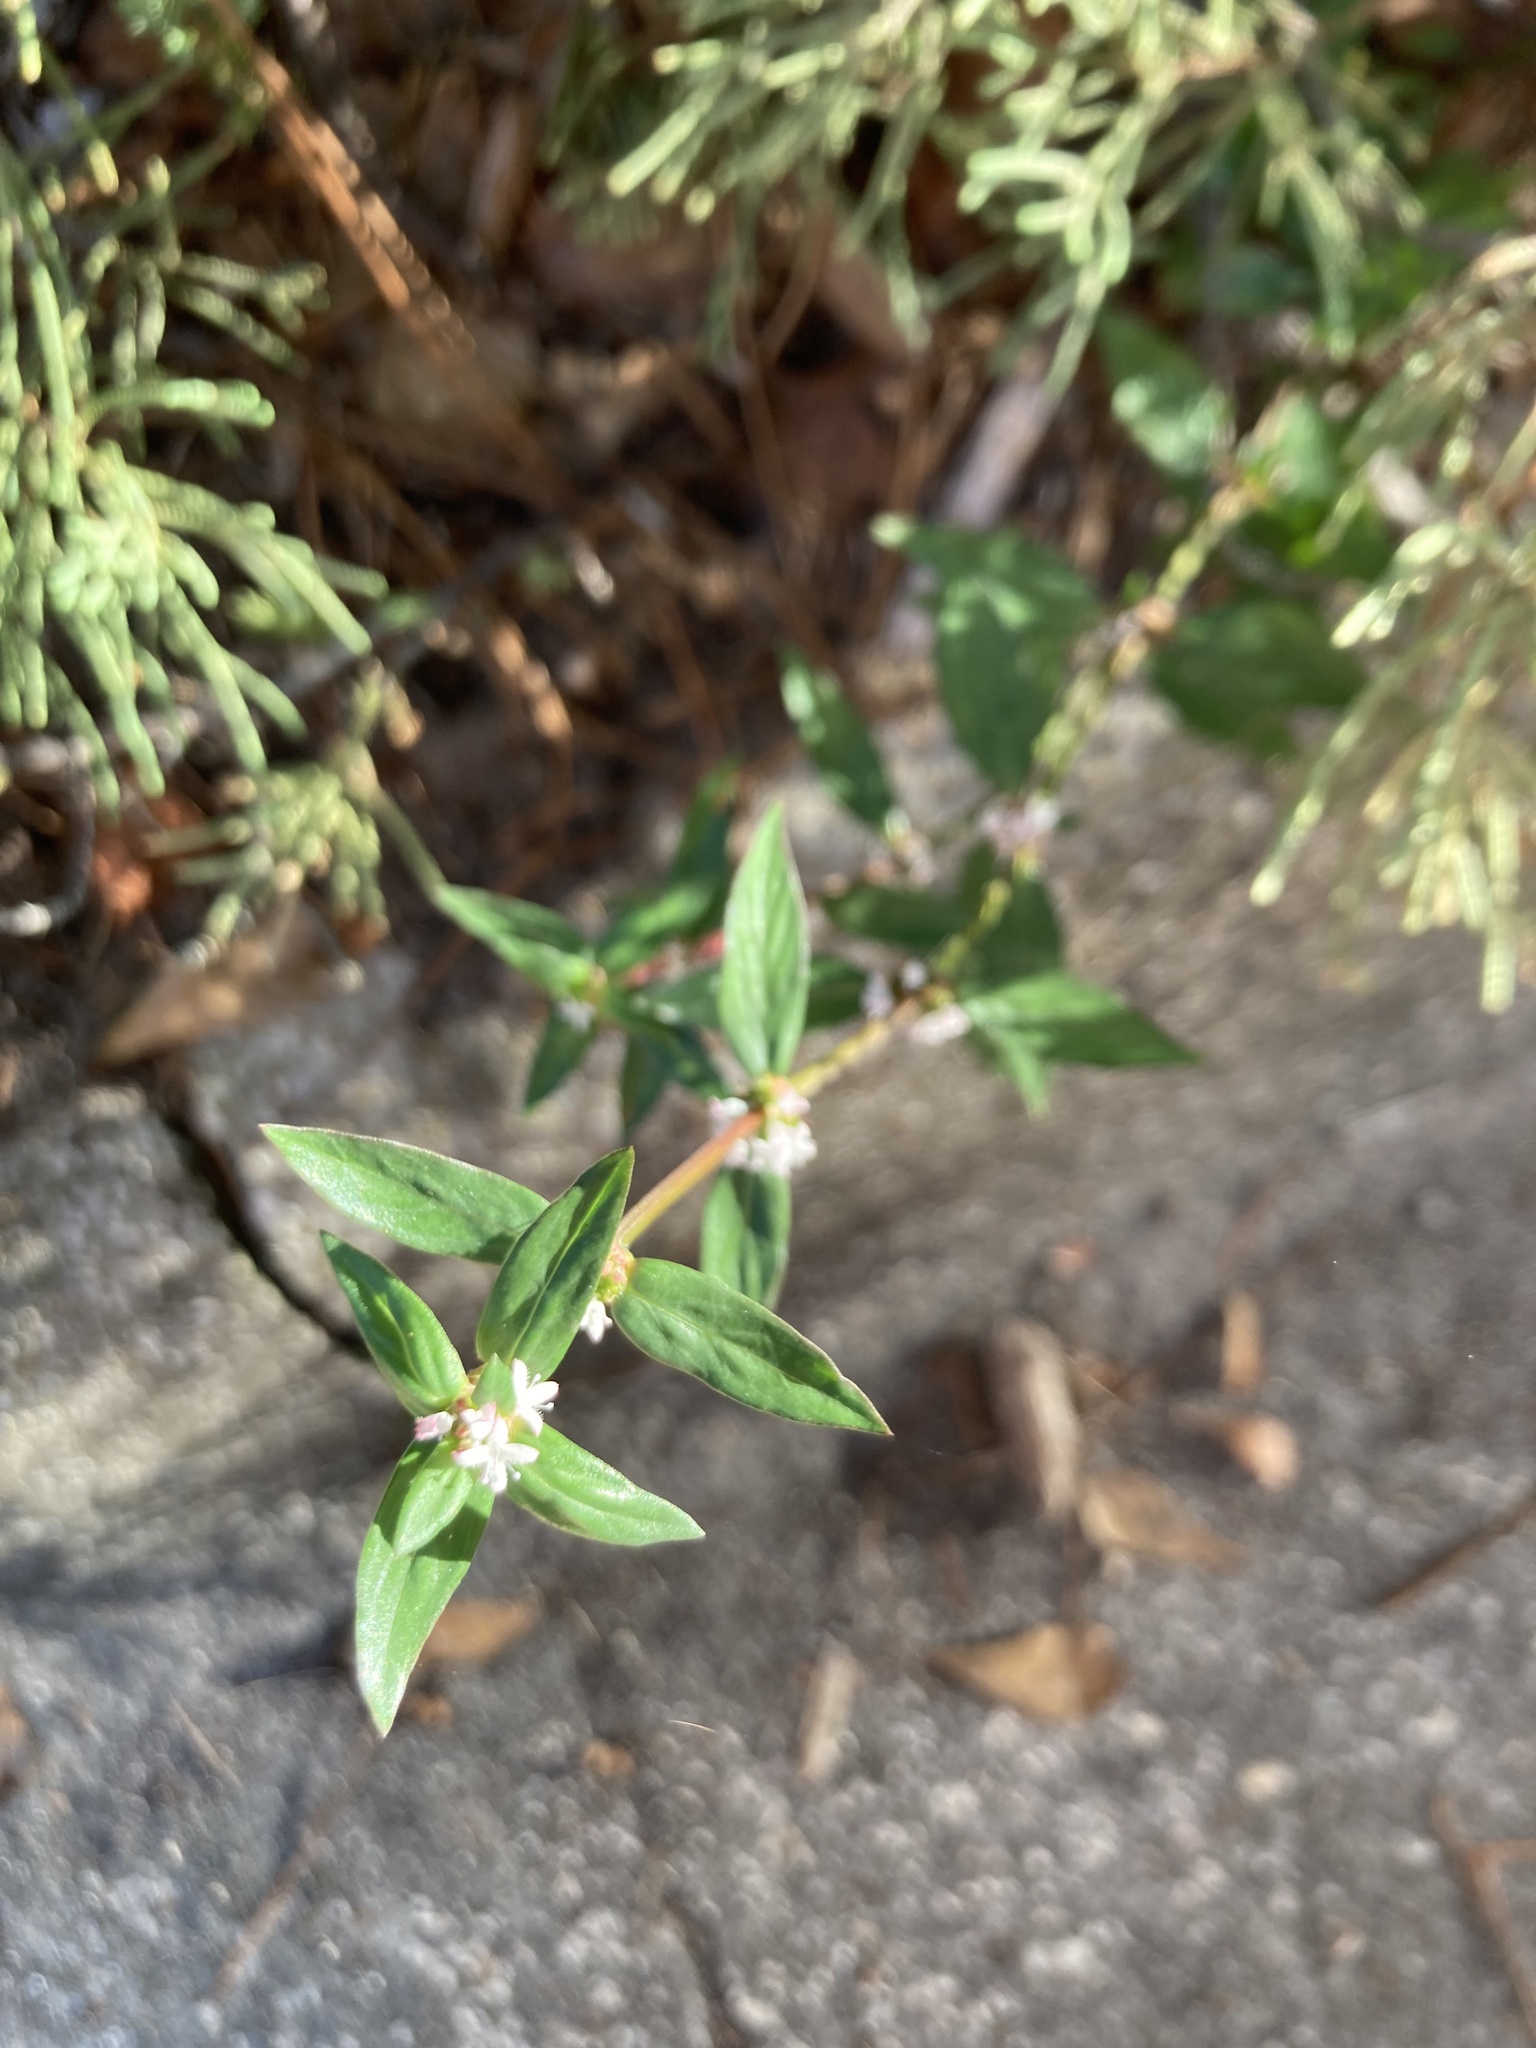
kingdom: Plantae
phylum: Tracheophyta
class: Magnoliopsida
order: Gentianales
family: Rubiaceae
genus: Spermacoce
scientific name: Spermacoce remota
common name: Woodland false buttonweed
